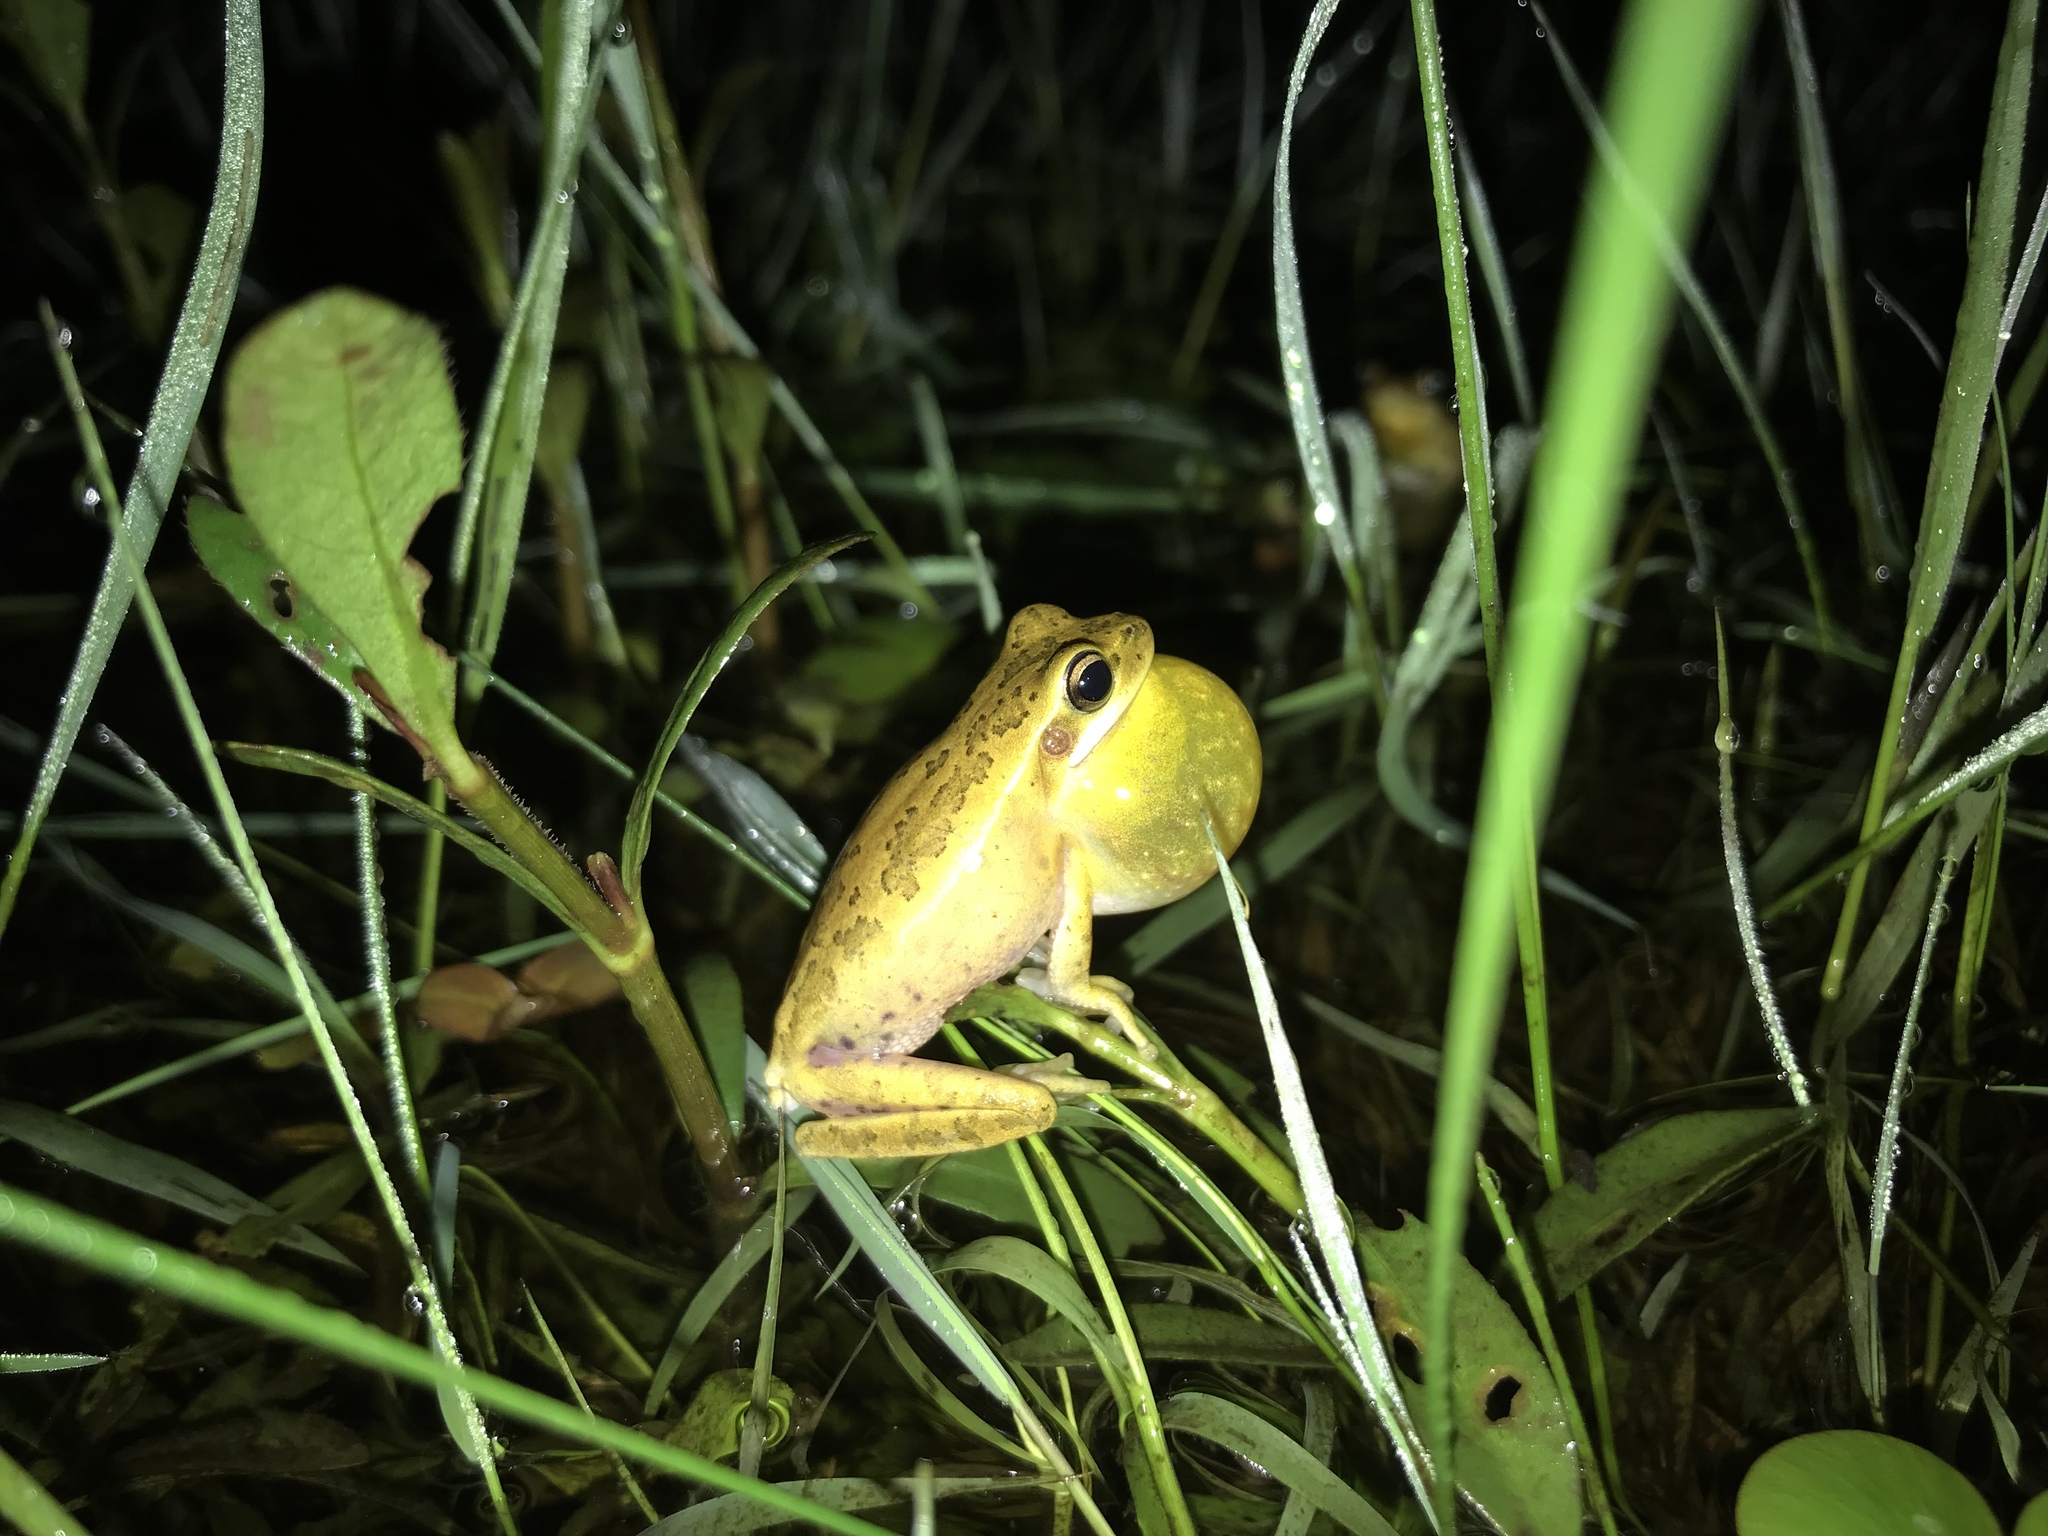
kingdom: Animalia
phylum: Chordata
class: Amphibia
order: Anura
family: Hylidae
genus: Boana
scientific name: Boana pulchella
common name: Montevideo treefrog
